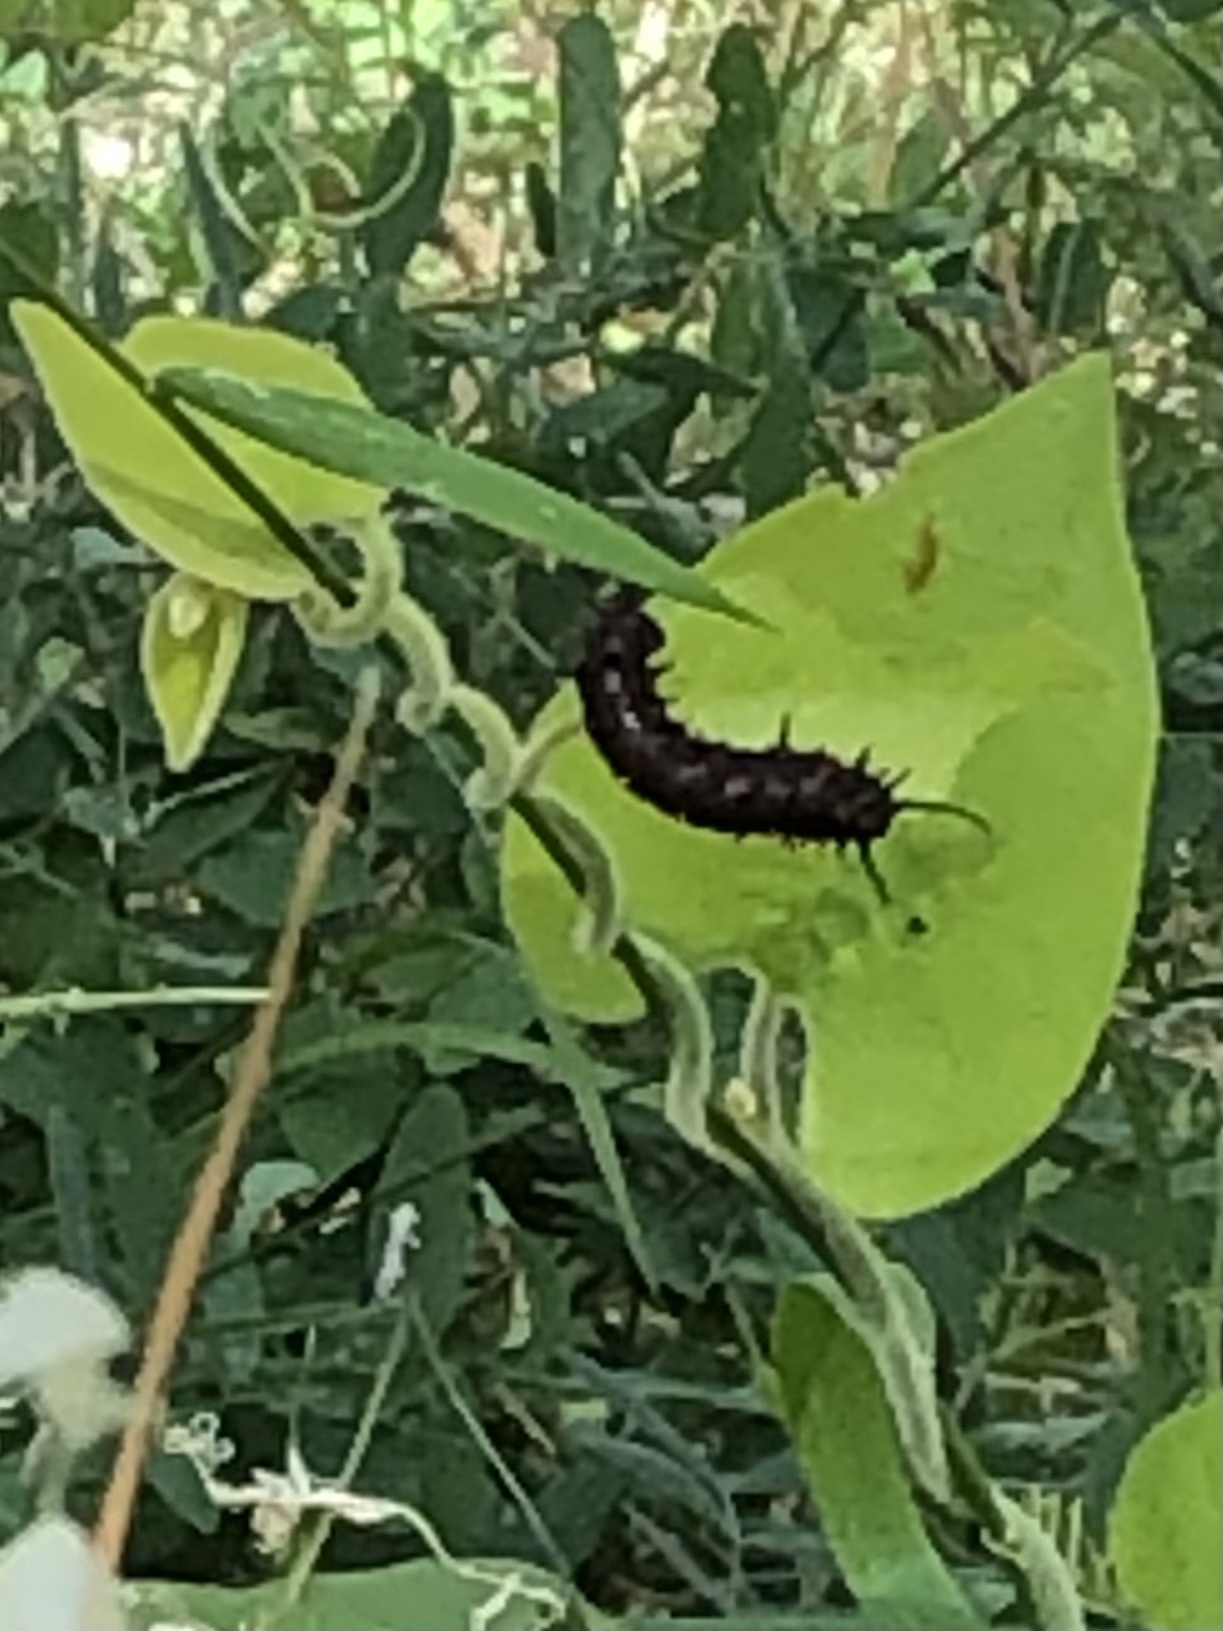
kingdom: Animalia
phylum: Arthropoda
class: Insecta
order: Lepidoptera
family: Papilionidae
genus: Battus
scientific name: Battus philenor
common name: Pipevine swallowtail
